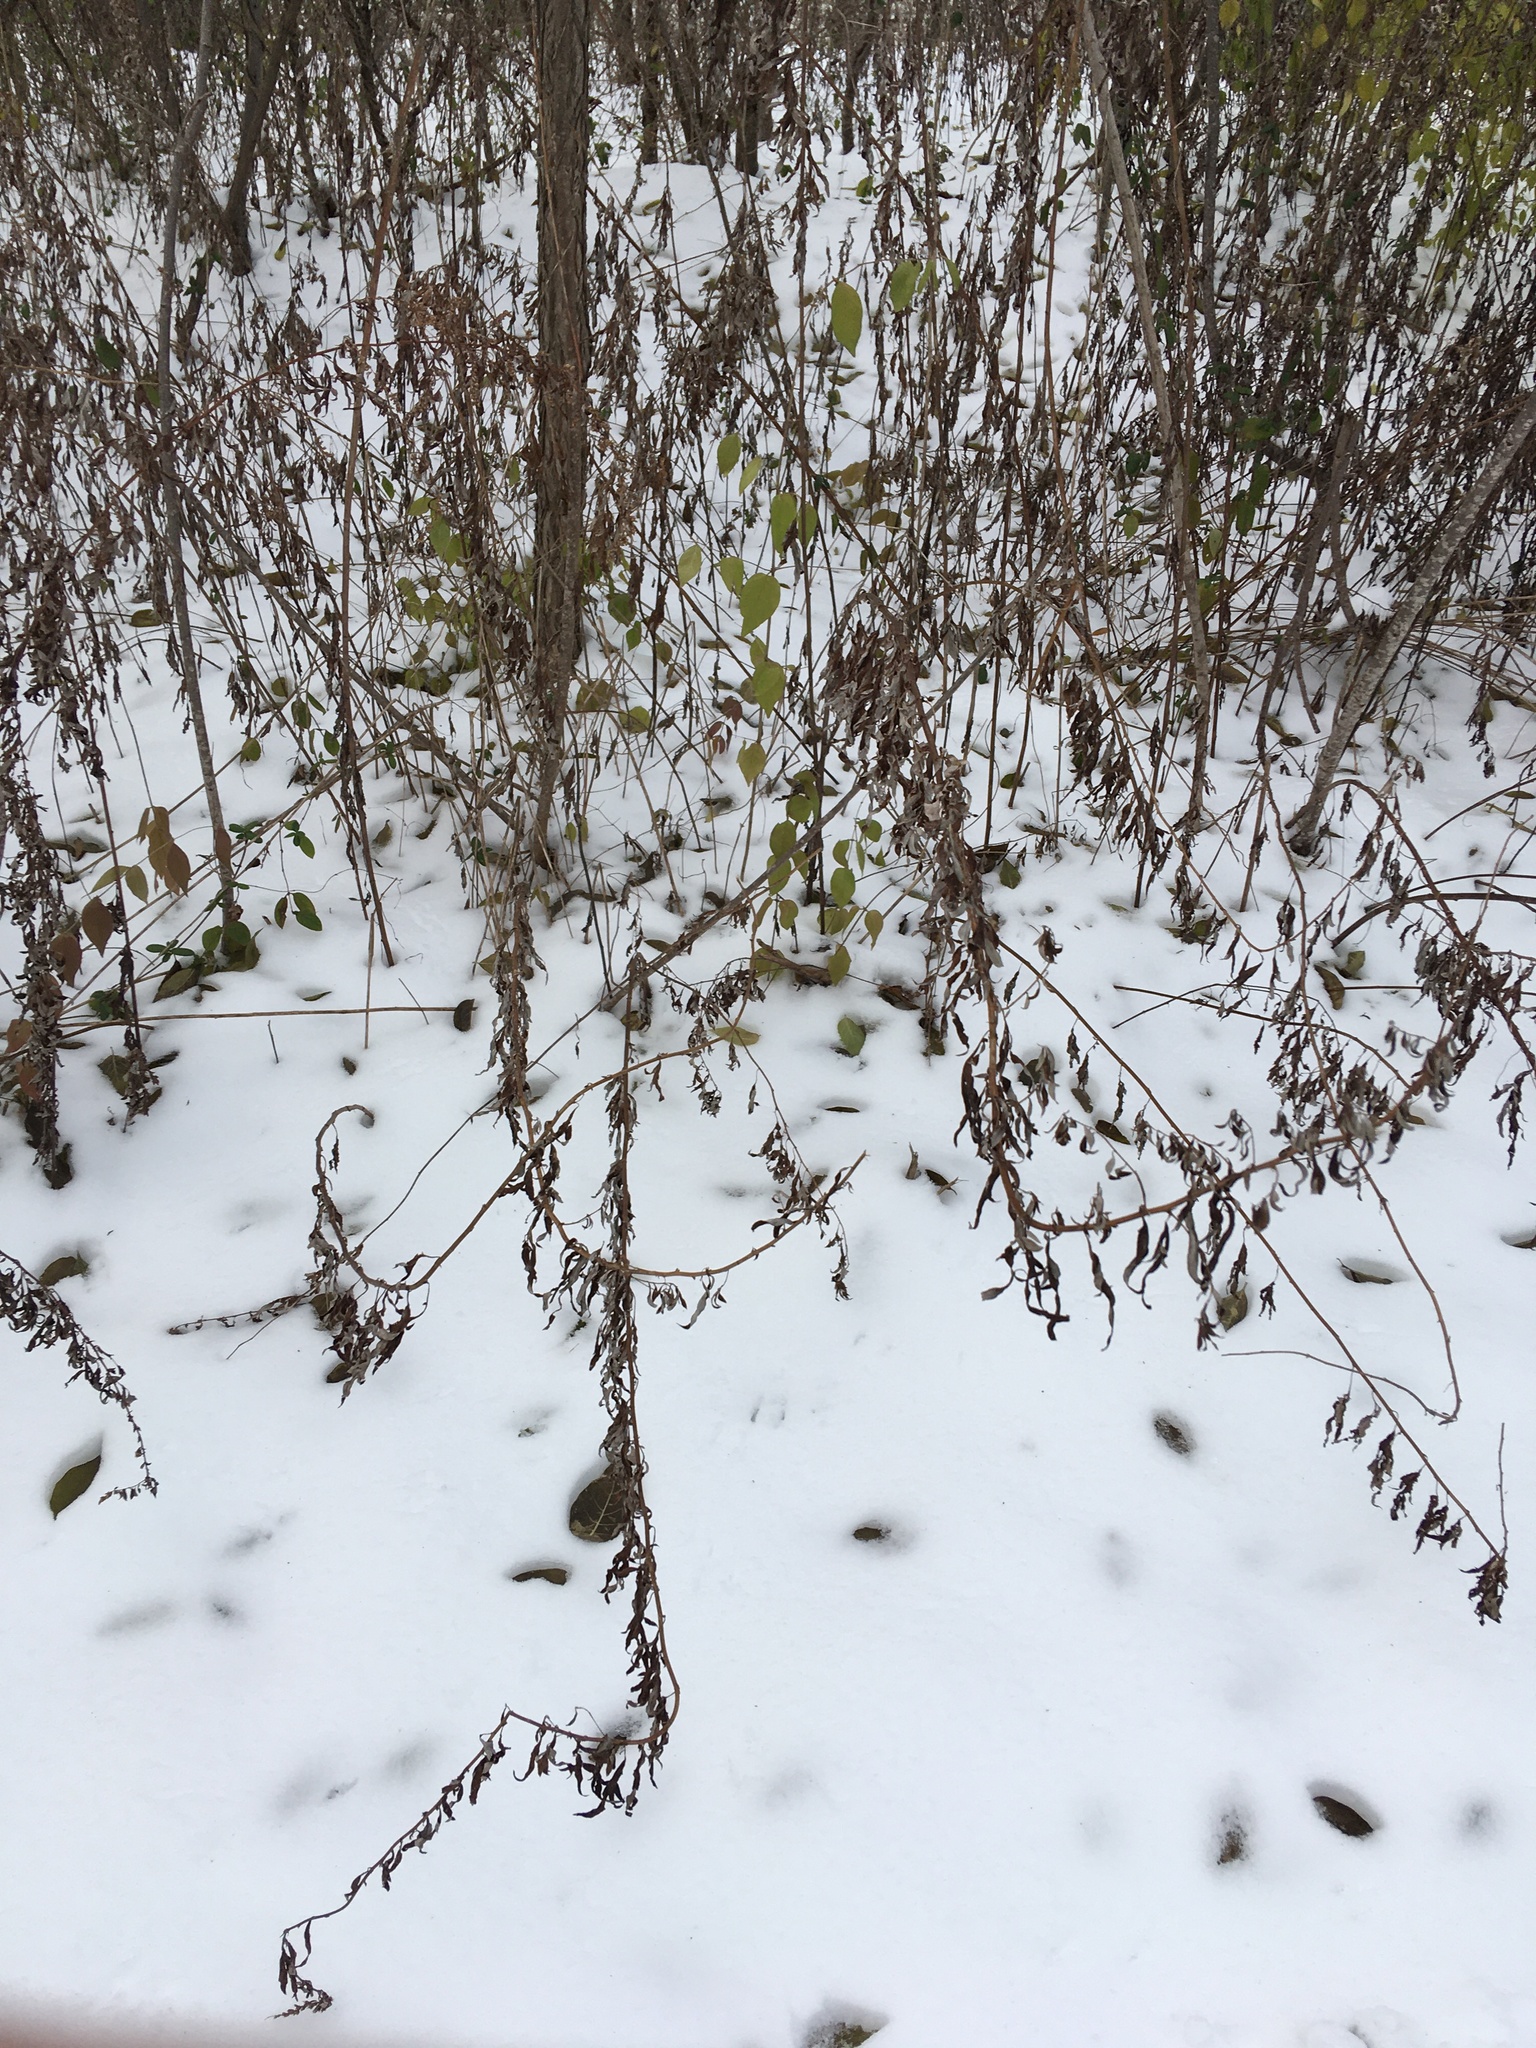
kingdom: Plantae
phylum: Tracheophyta
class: Magnoliopsida
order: Asterales
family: Asteraceae
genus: Artemisia
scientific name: Artemisia vulgaris
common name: Mugwort
